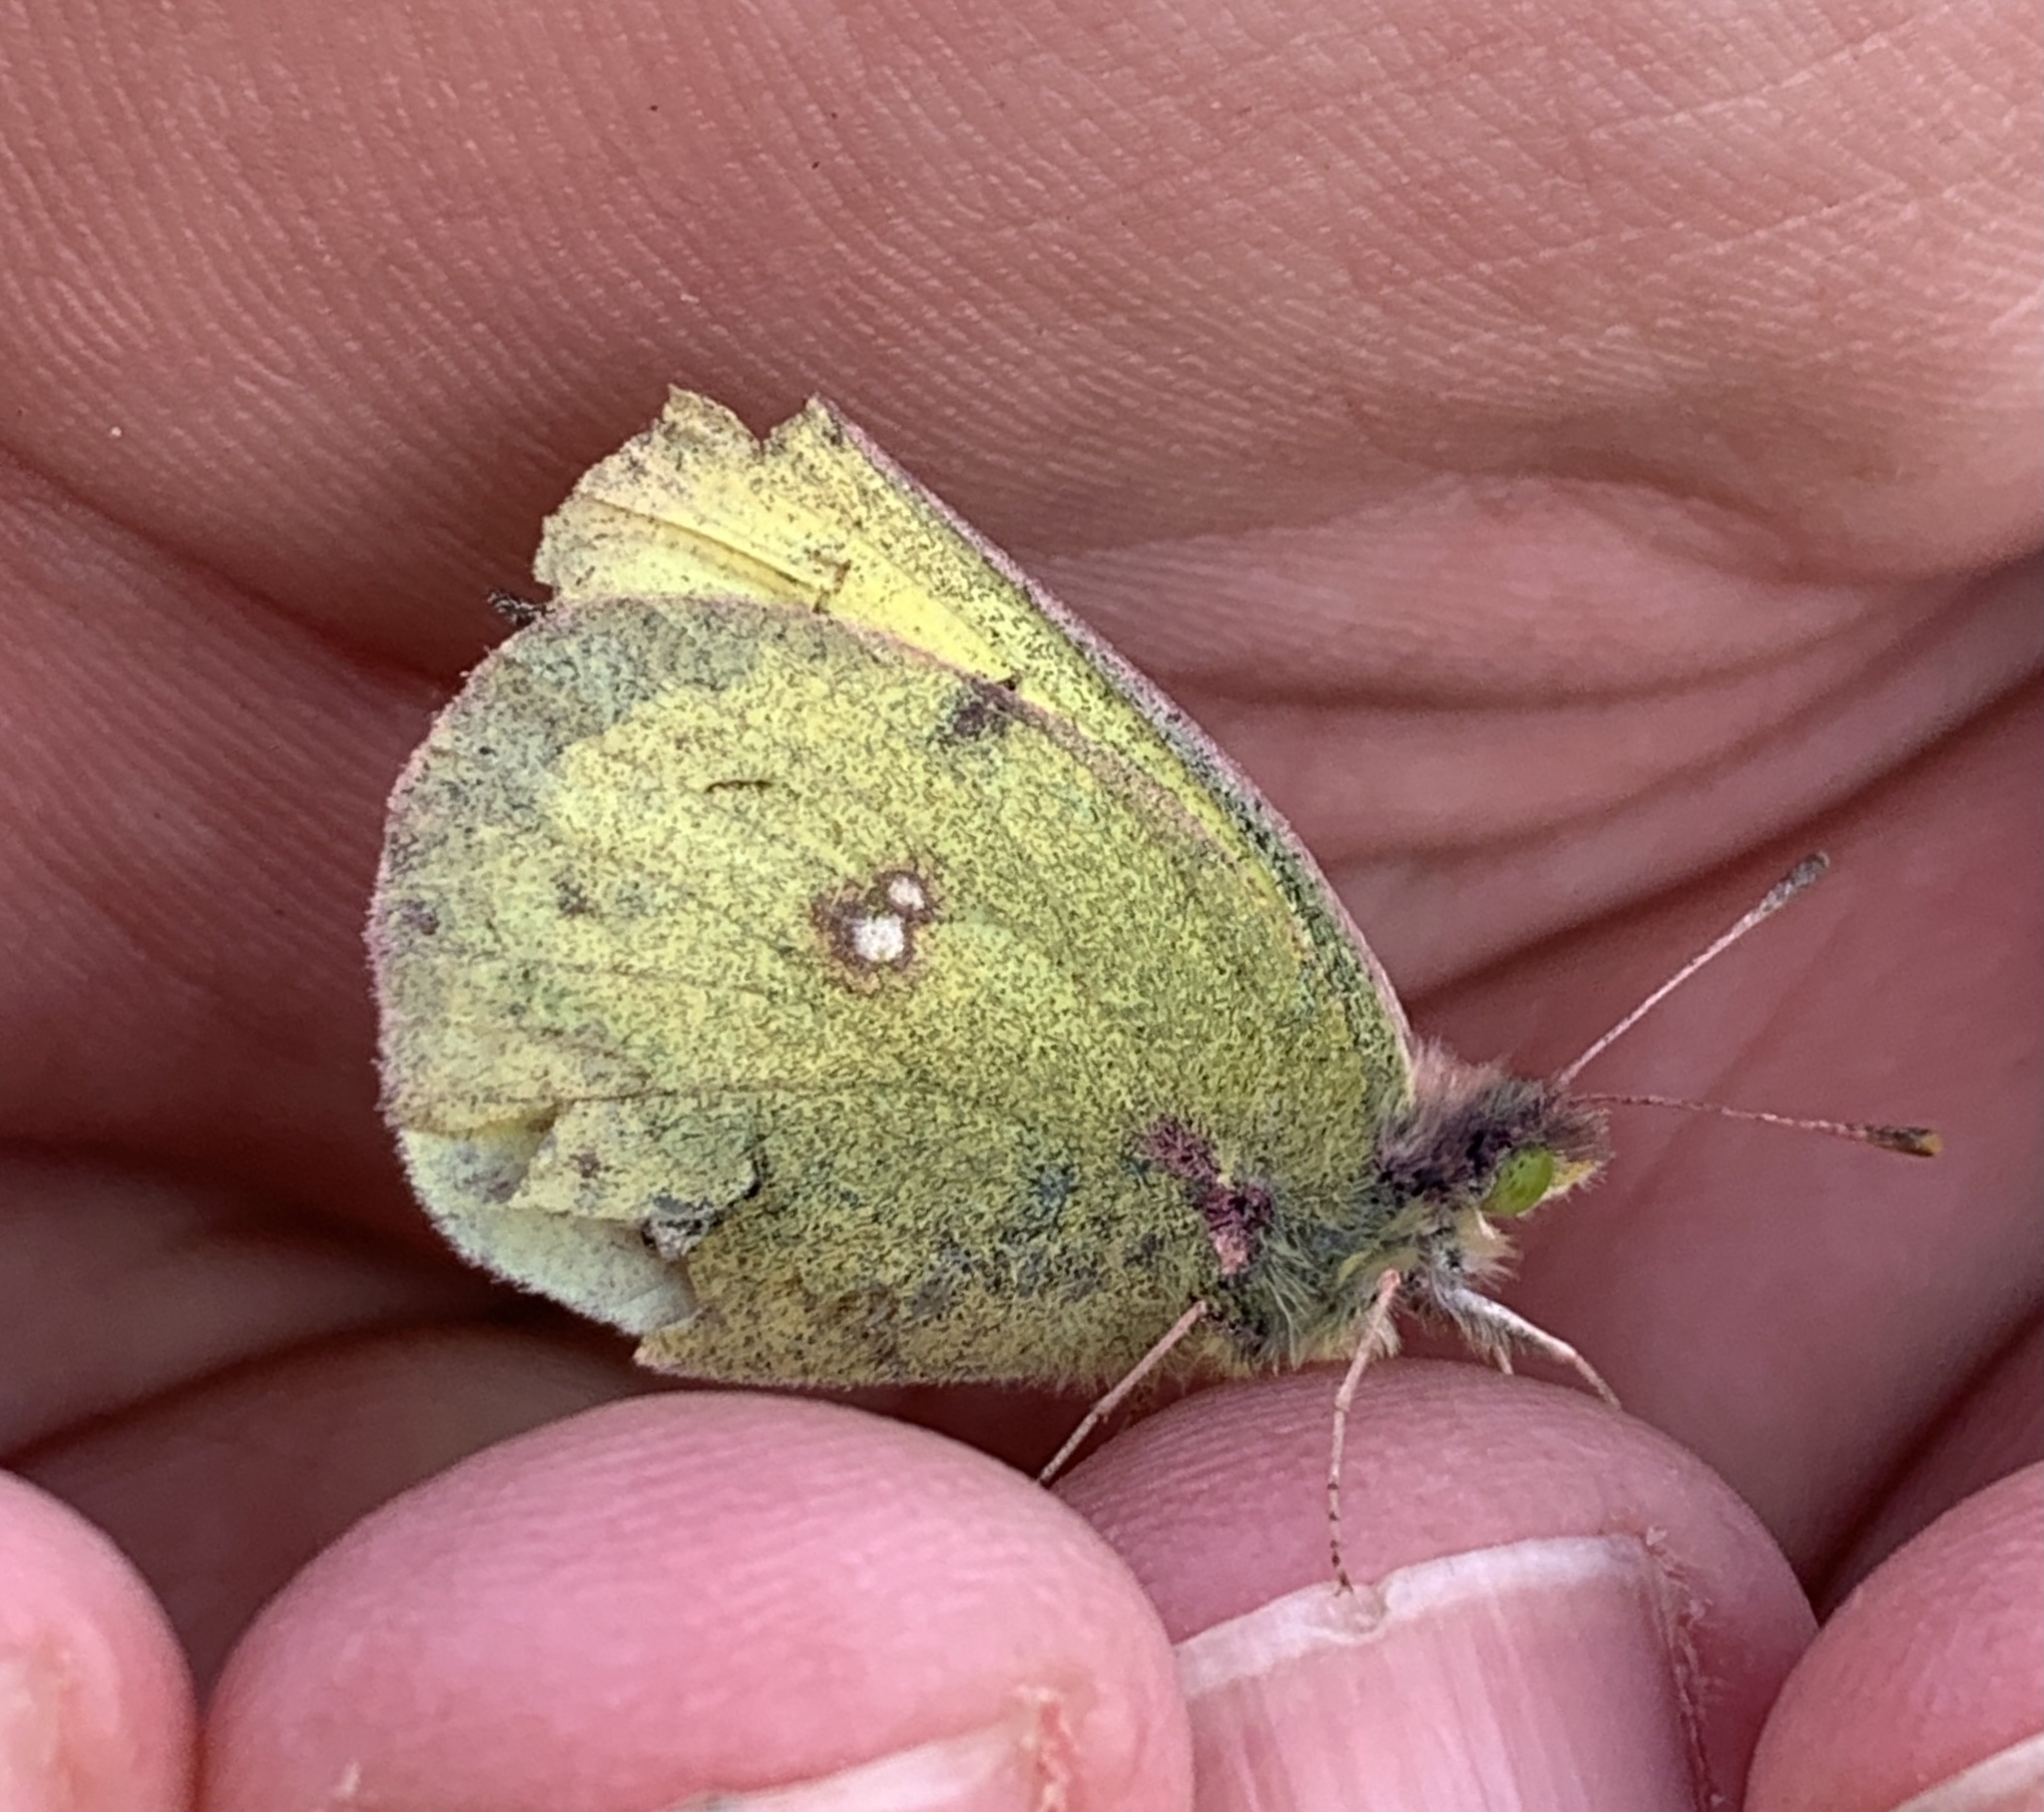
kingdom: Animalia
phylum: Arthropoda
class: Insecta
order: Lepidoptera
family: Pieridae
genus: Colias
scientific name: Colias philodice
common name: Clouded sulphur
